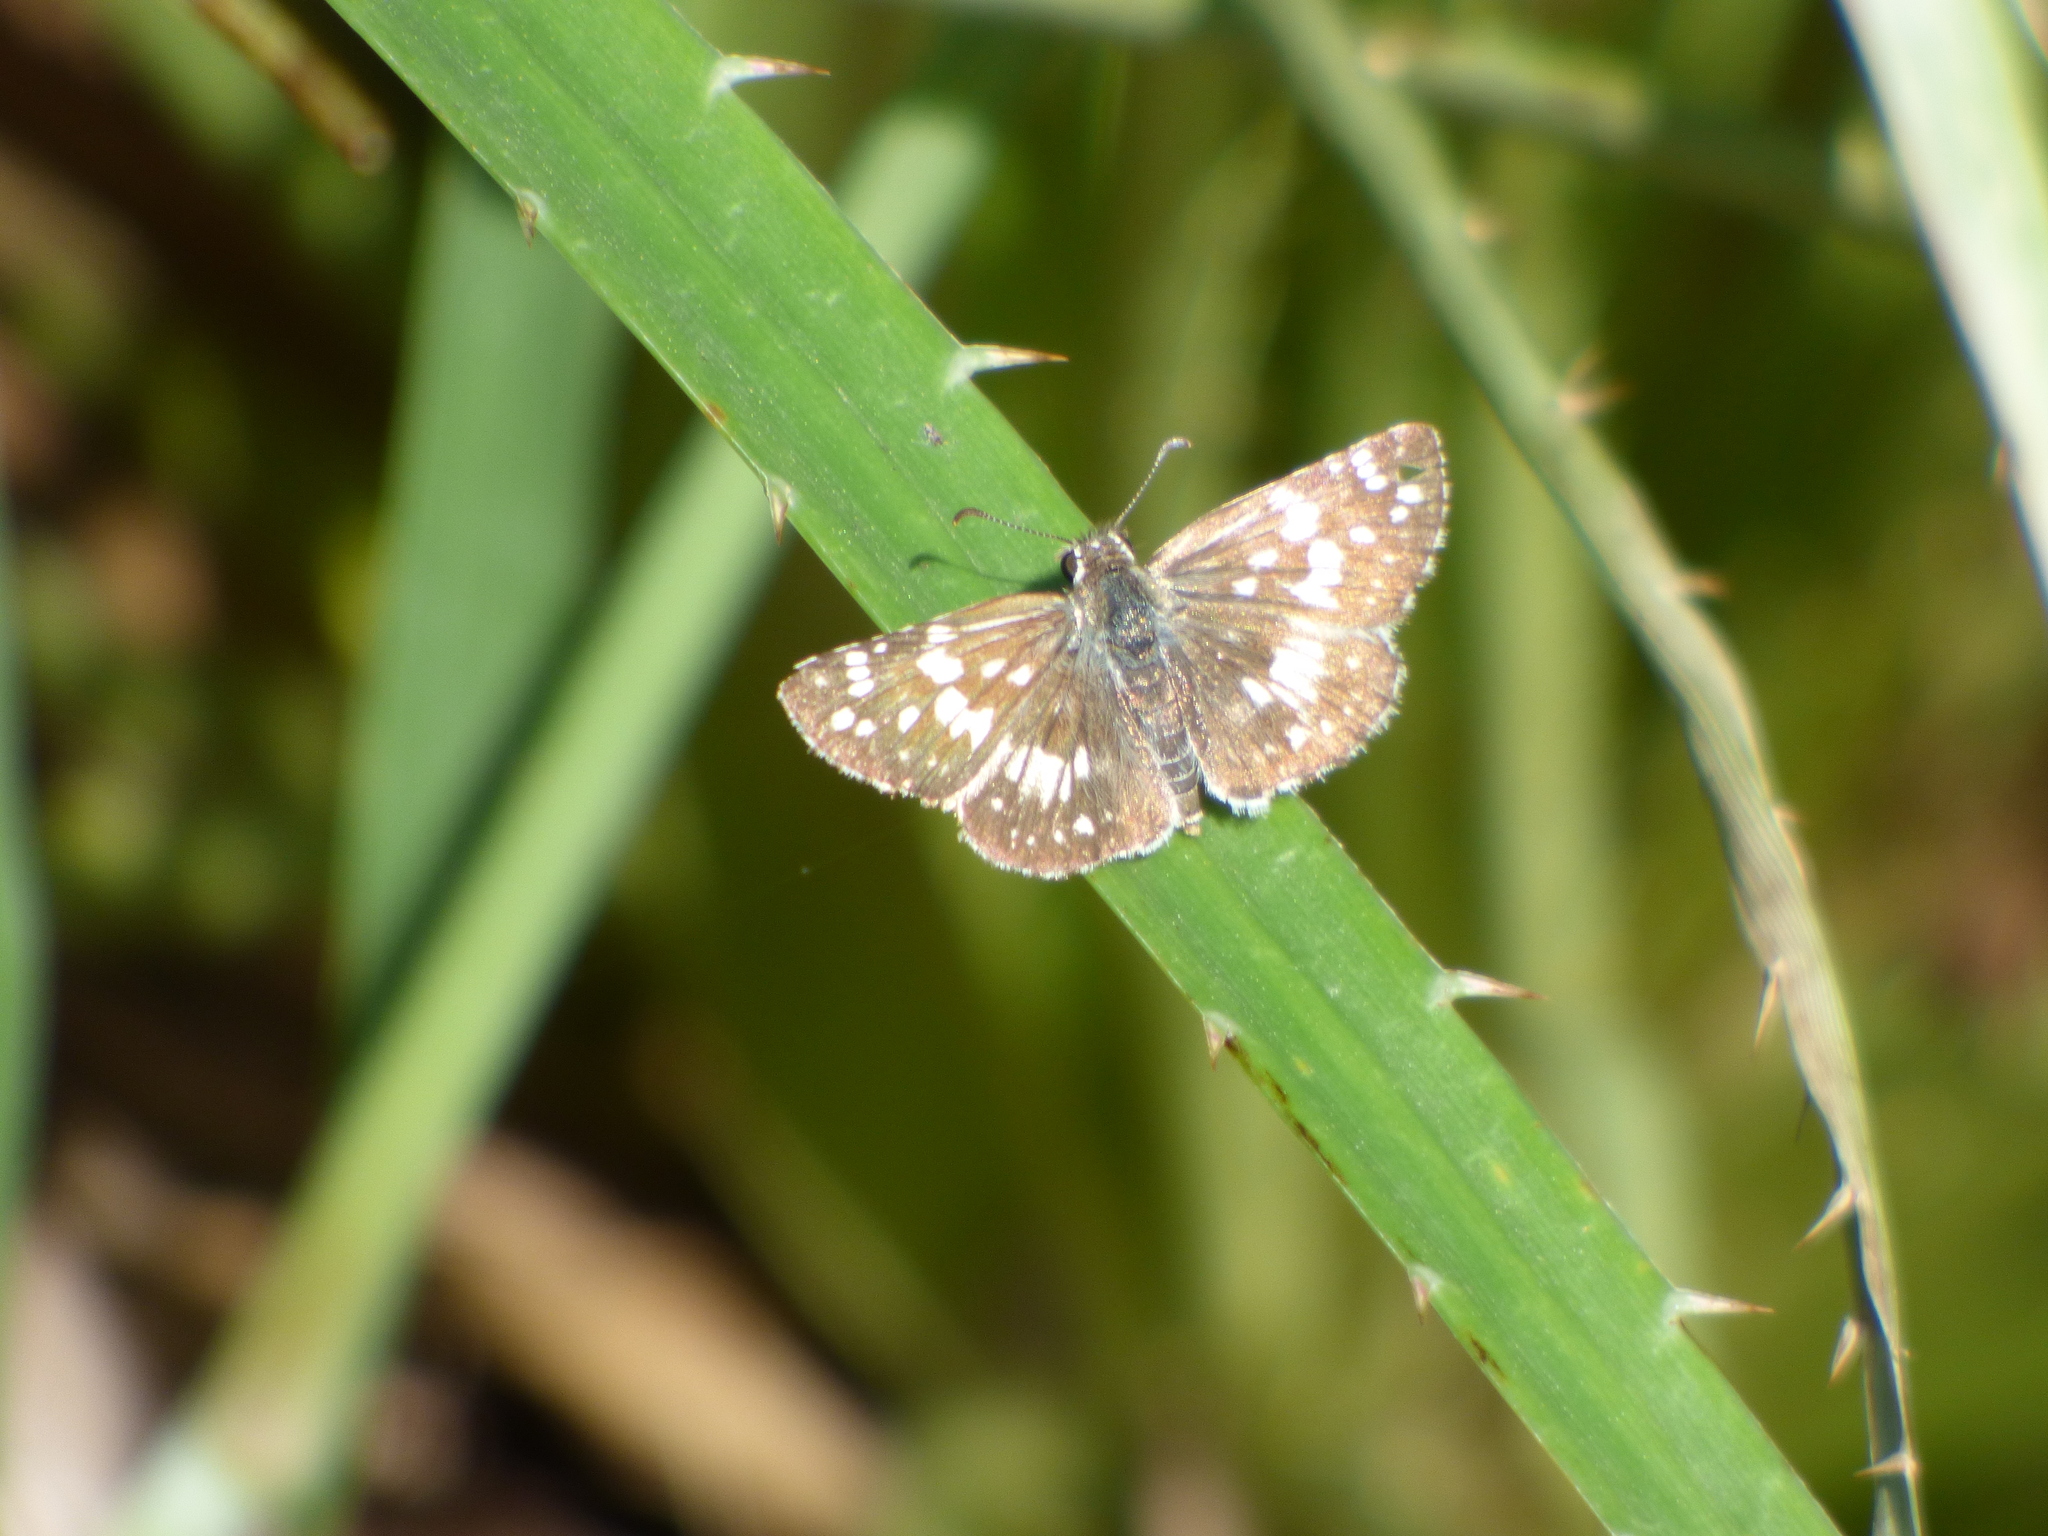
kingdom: Animalia
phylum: Arthropoda
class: Insecta
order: Lepidoptera
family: Hesperiidae
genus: Burnsius
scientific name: Burnsius orcynoides
